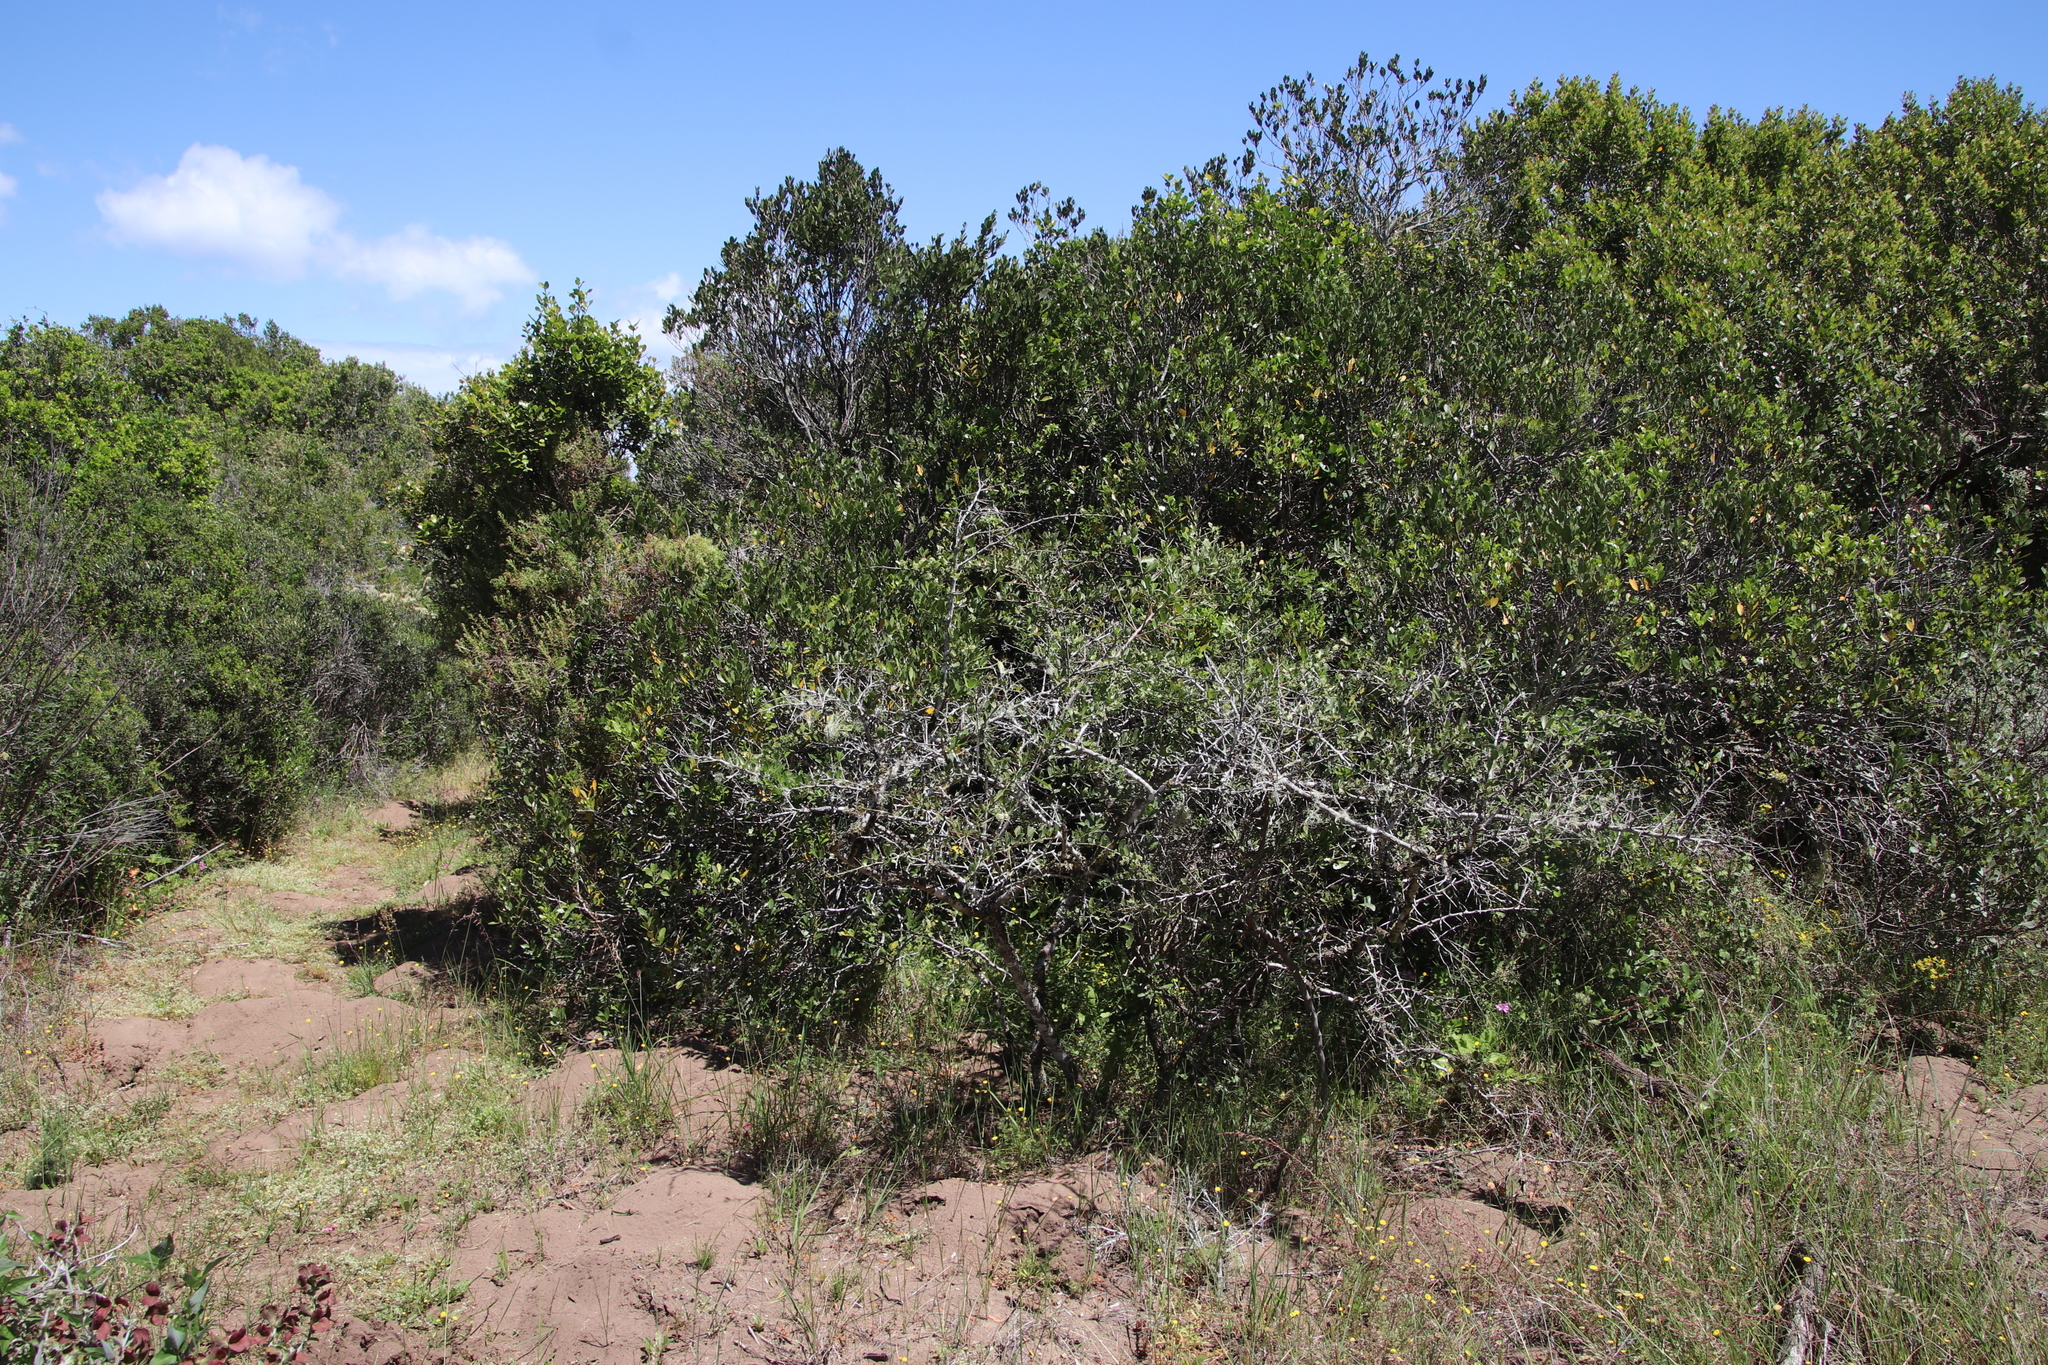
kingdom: Plantae
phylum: Tracheophyta
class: Magnoliopsida
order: Celastrales
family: Celastraceae
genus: Gymnosporia
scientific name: Gymnosporia buxifolia
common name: Common spike-thorn
